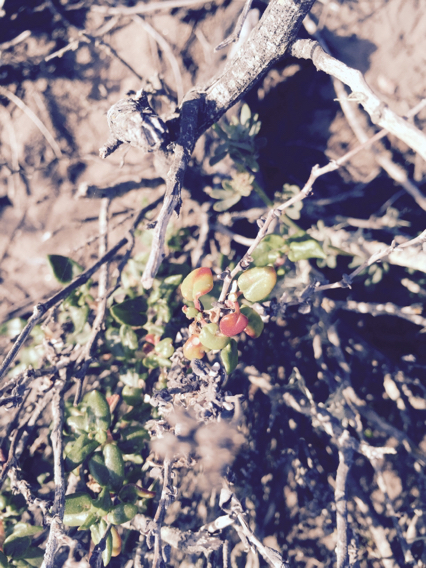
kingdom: Plantae
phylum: Tracheophyta
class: Magnoliopsida
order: Caryophyllales
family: Polygonaceae
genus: Eriogonum
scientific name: Eriogonum parvifolium
